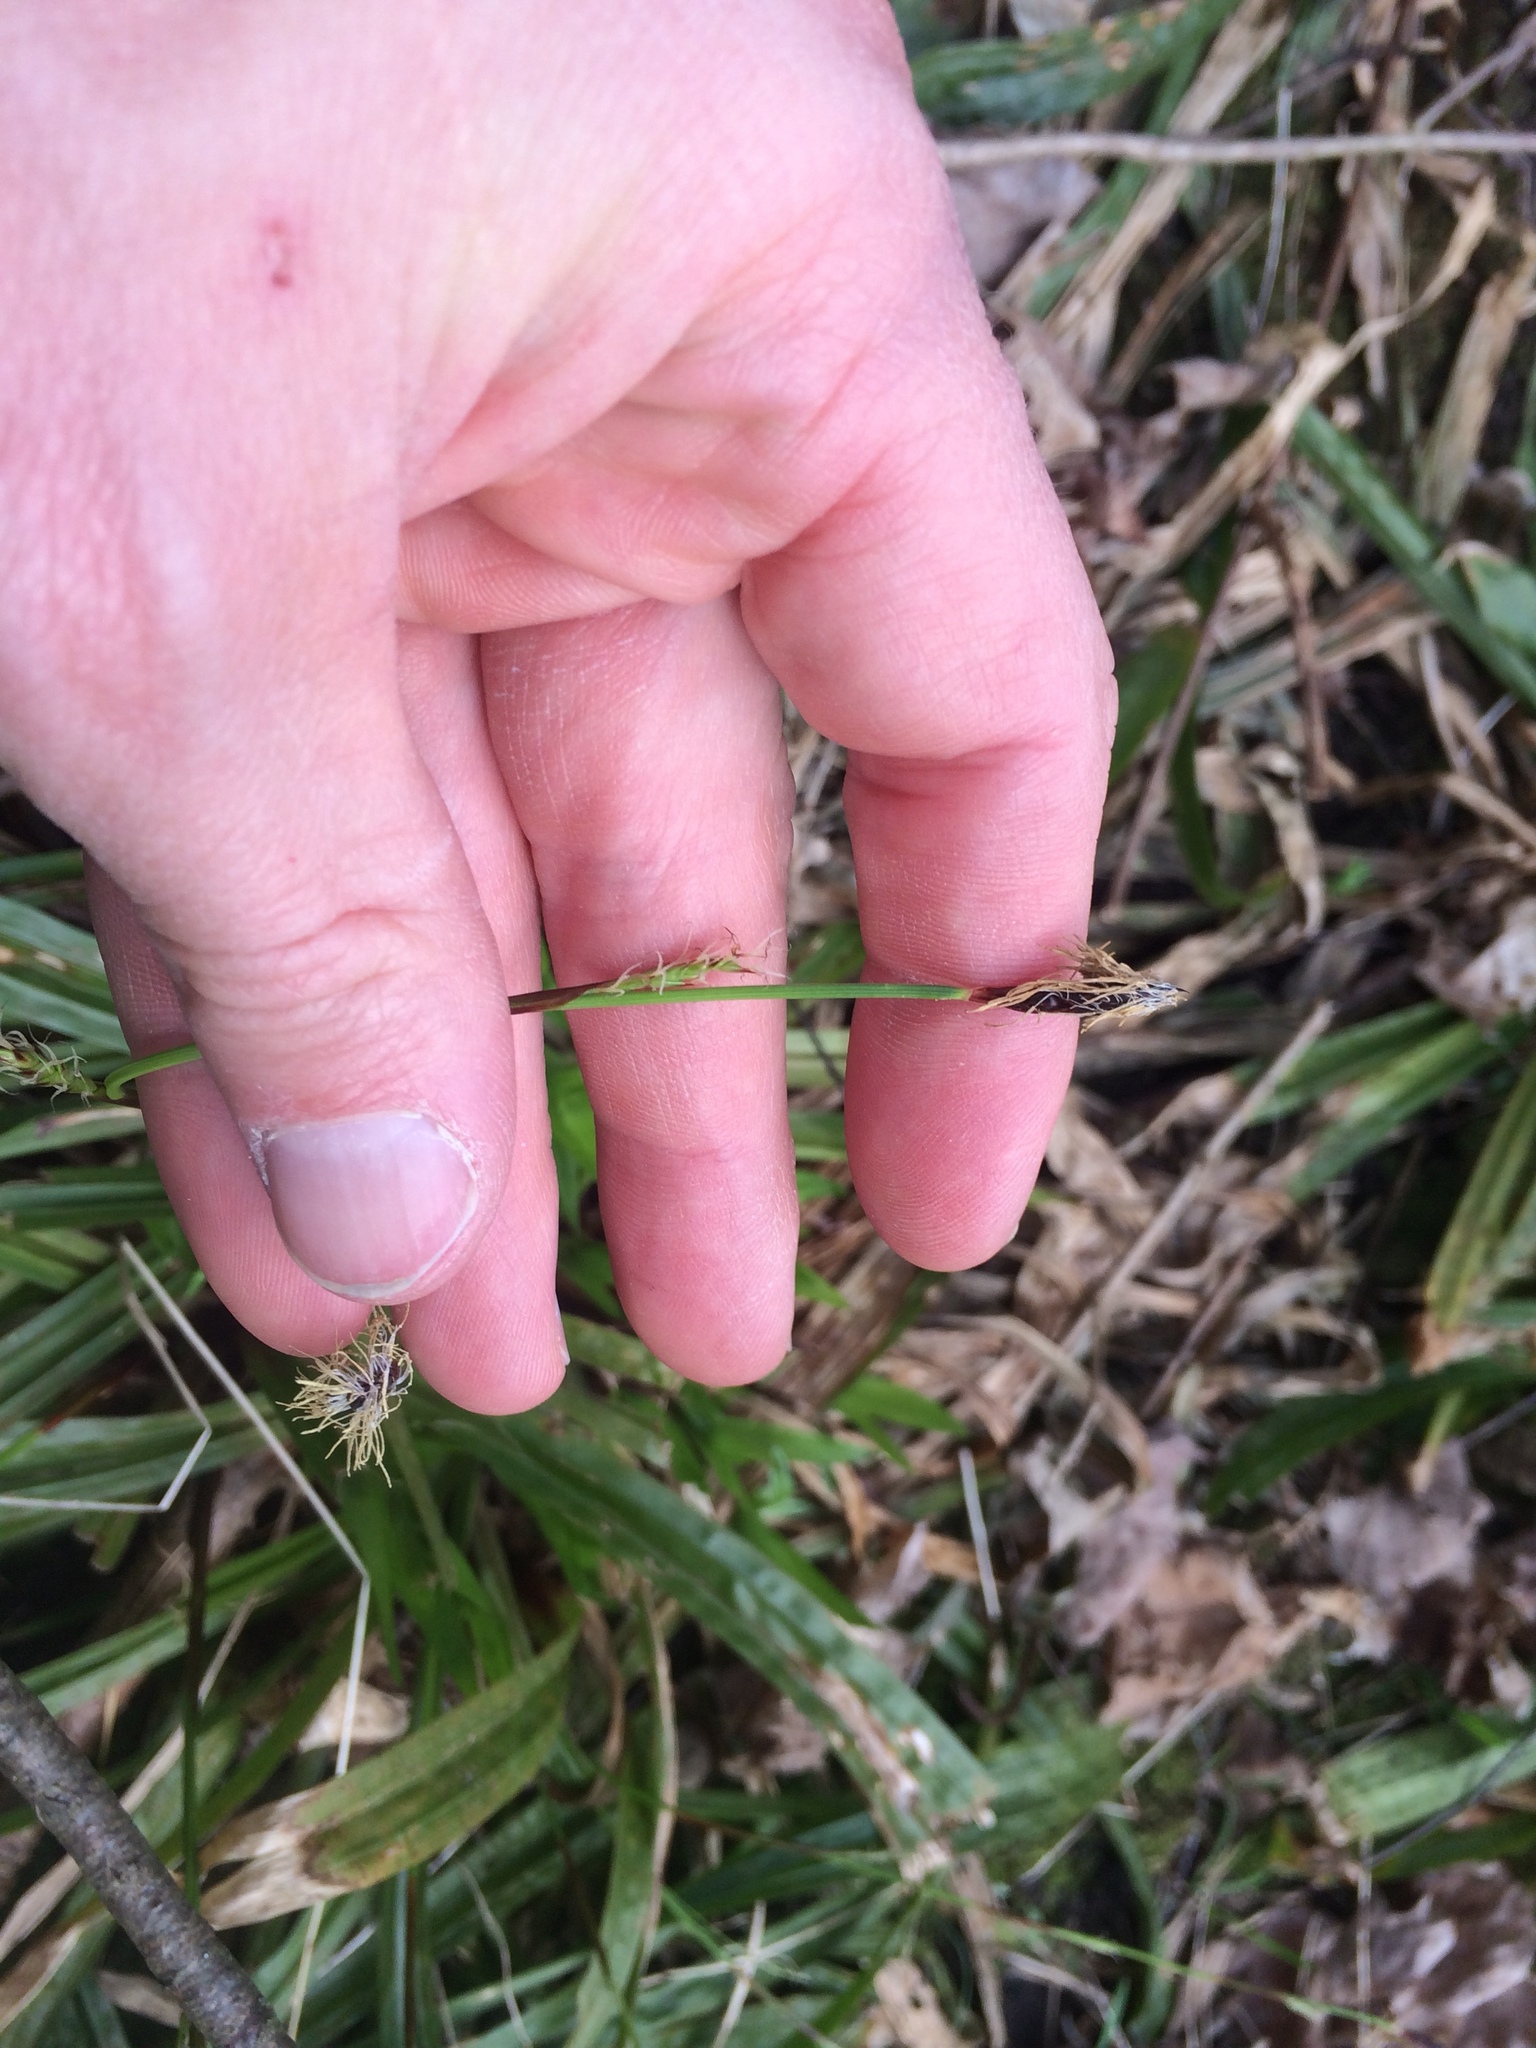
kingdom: Plantae
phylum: Tracheophyta
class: Liliopsida
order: Poales
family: Cyperaceae
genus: Carex
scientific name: Carex plantaginea
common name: Plantain-leaved sedge
